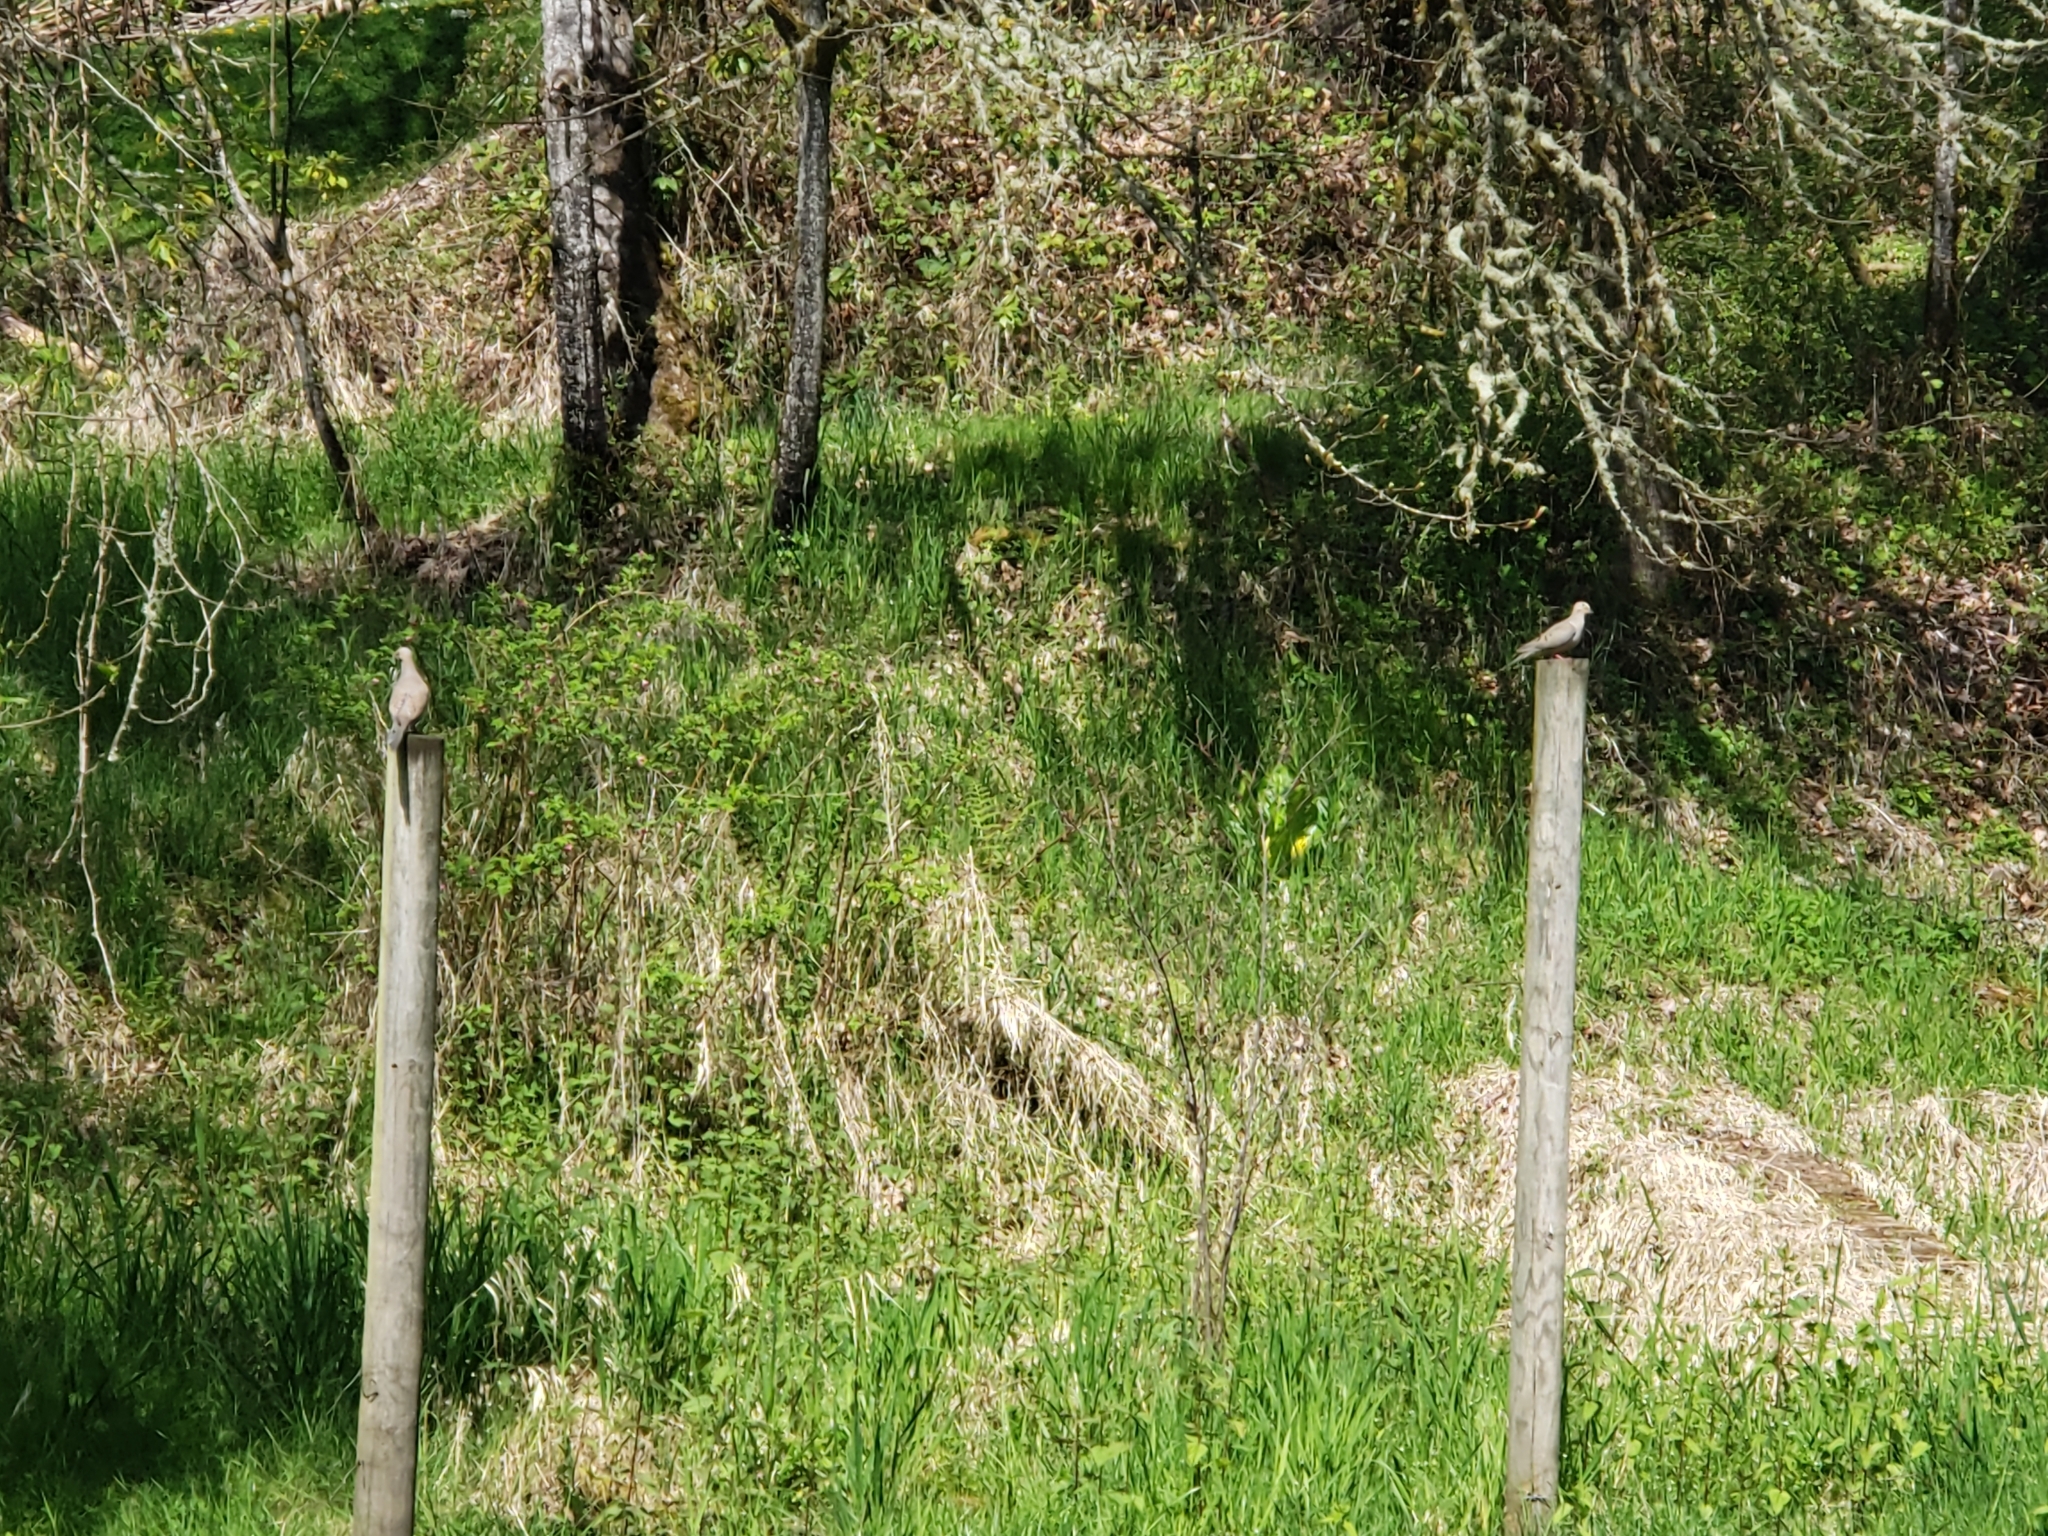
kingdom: Animalia
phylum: Chordata
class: Aves
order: Columbiformes
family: Columbidae
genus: Zenaida
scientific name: Zenaida macroura
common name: Mourning dove
